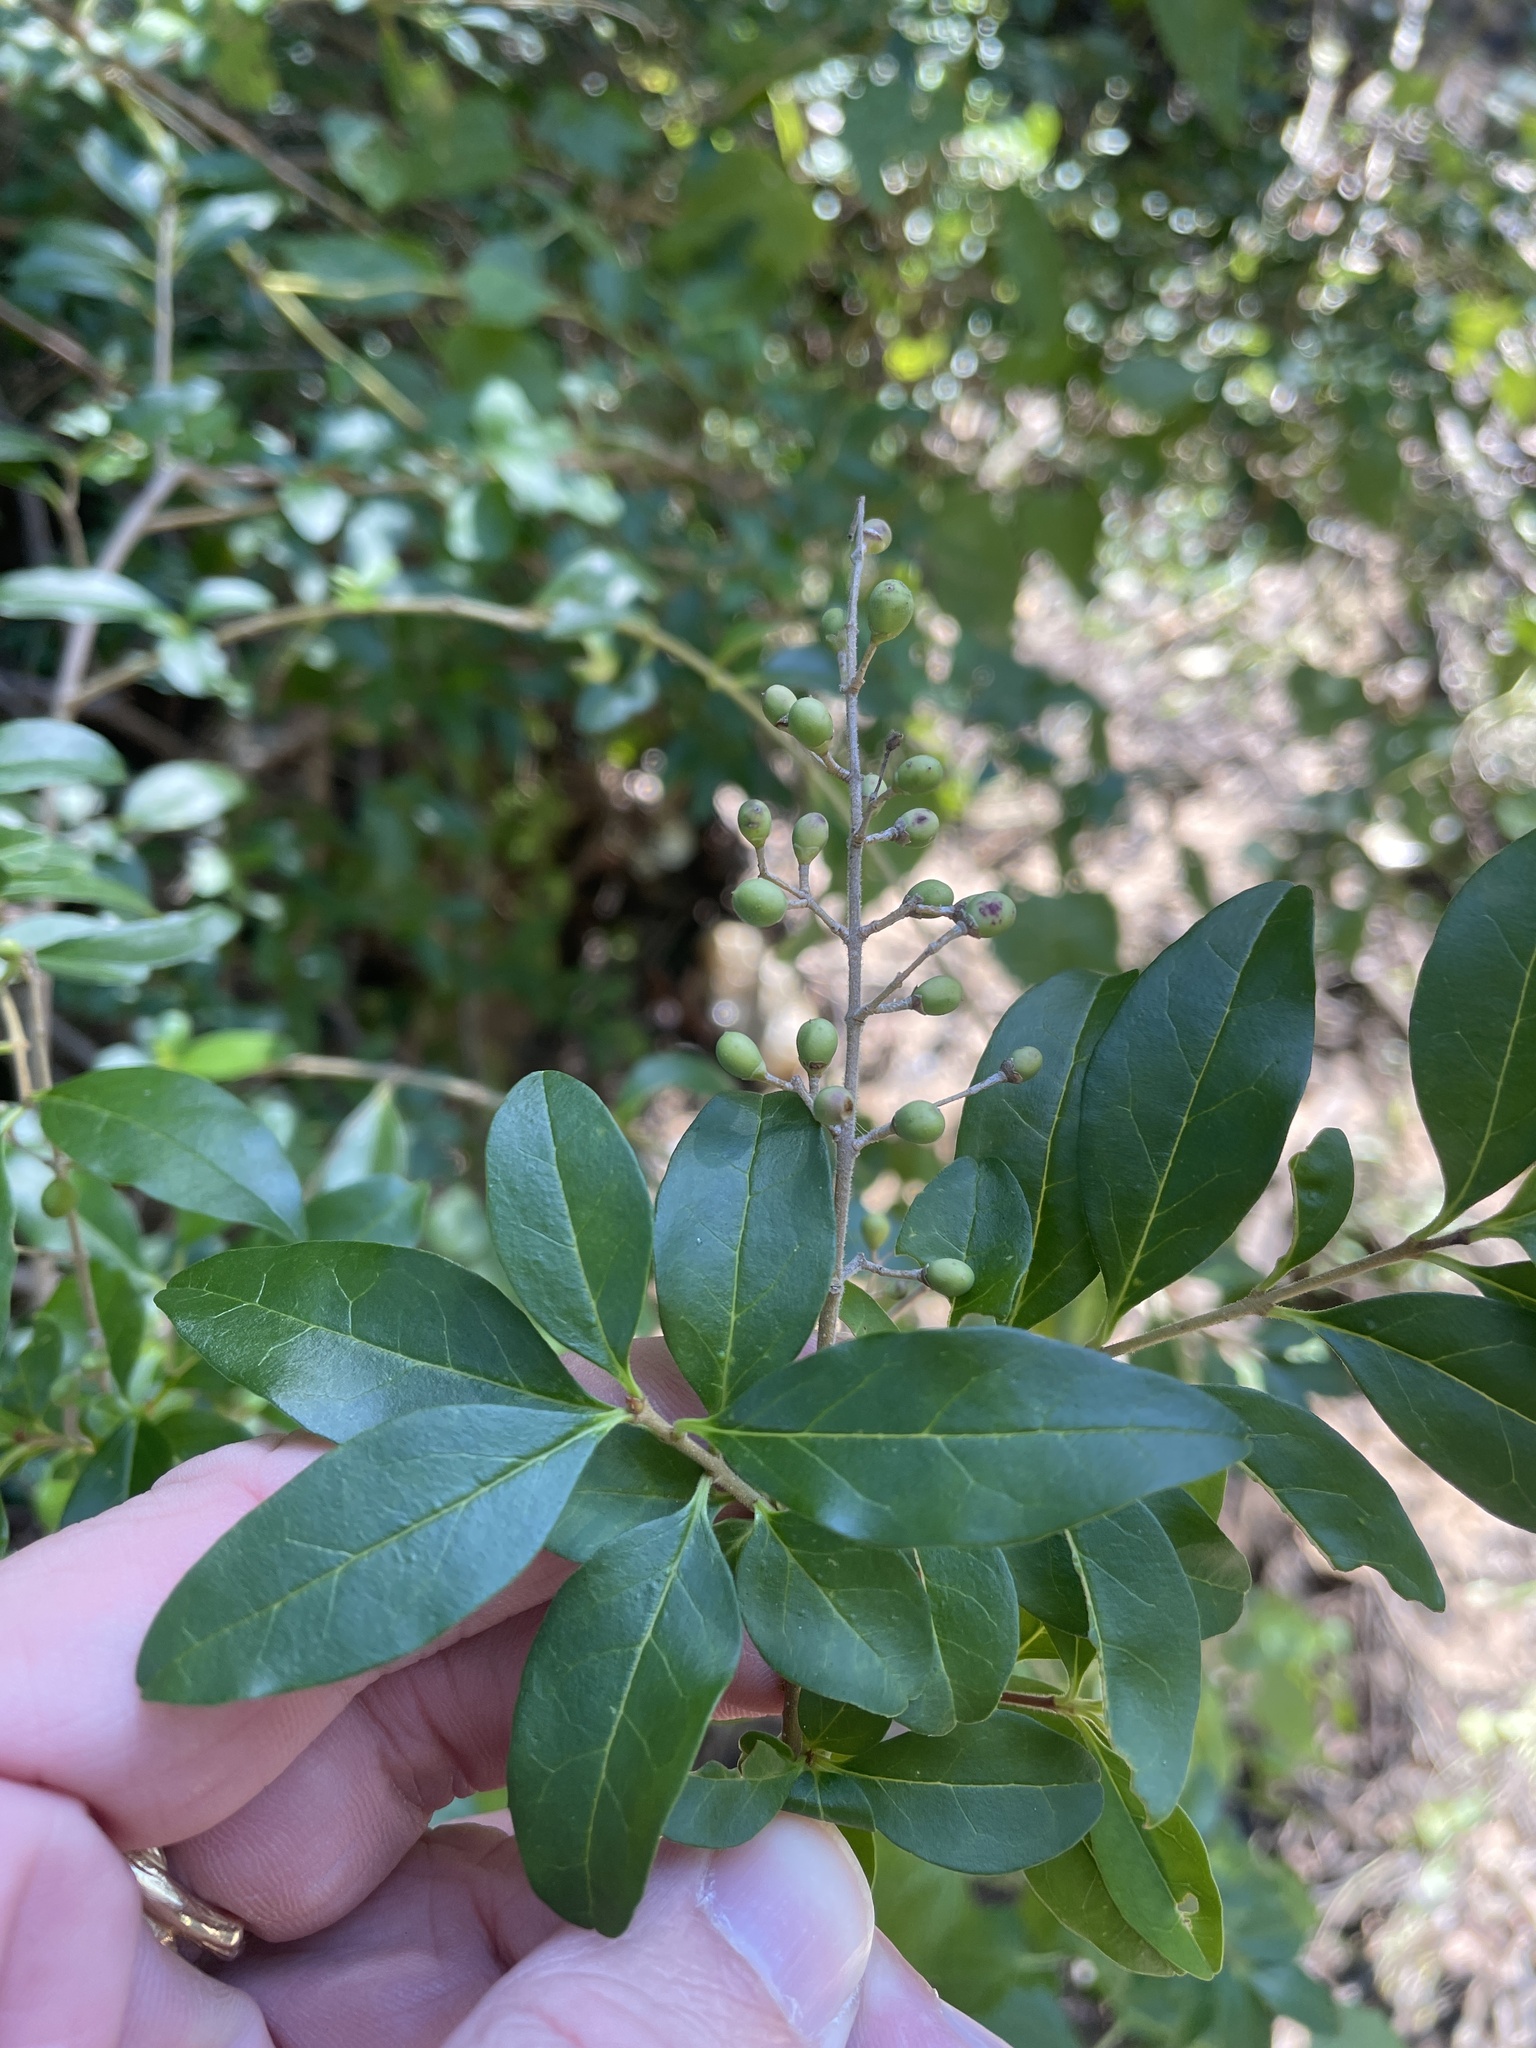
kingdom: Plantae
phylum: Tracheophyta
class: Magnoliopsida
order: Lamiales
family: Oleaceae
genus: Forestiera
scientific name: Forestiera pubescens
